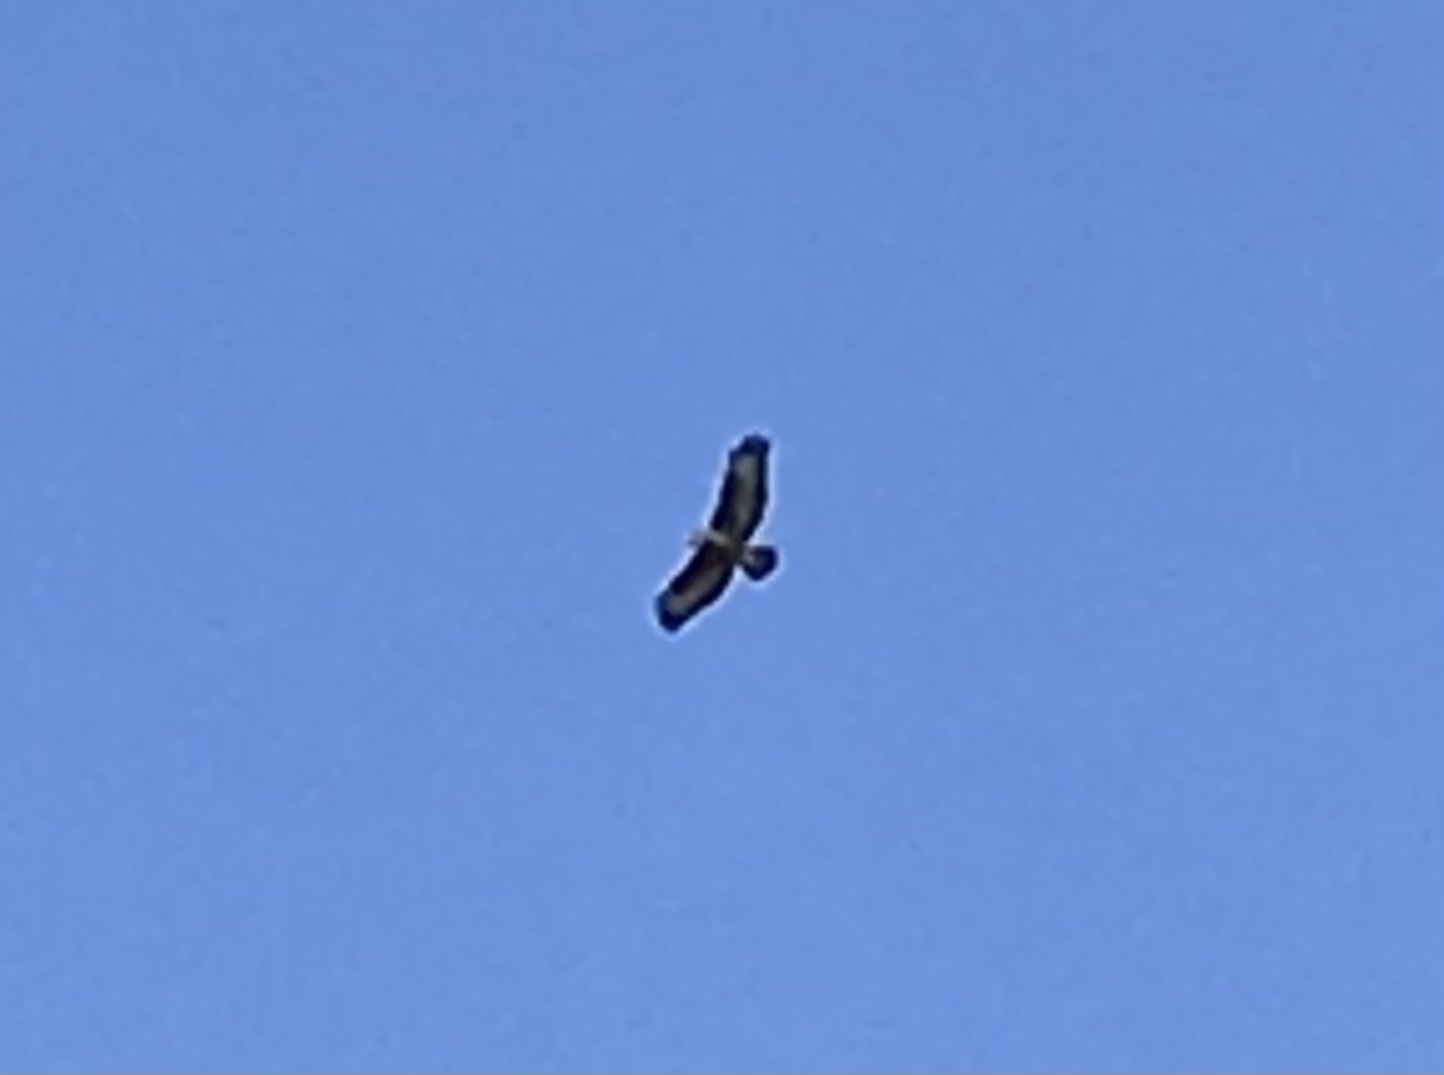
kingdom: Animalia
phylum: Chordata
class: Aves
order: Accipitriformes
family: Accipitridae
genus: Buteo
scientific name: Buteo buteo
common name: Common buzzard
